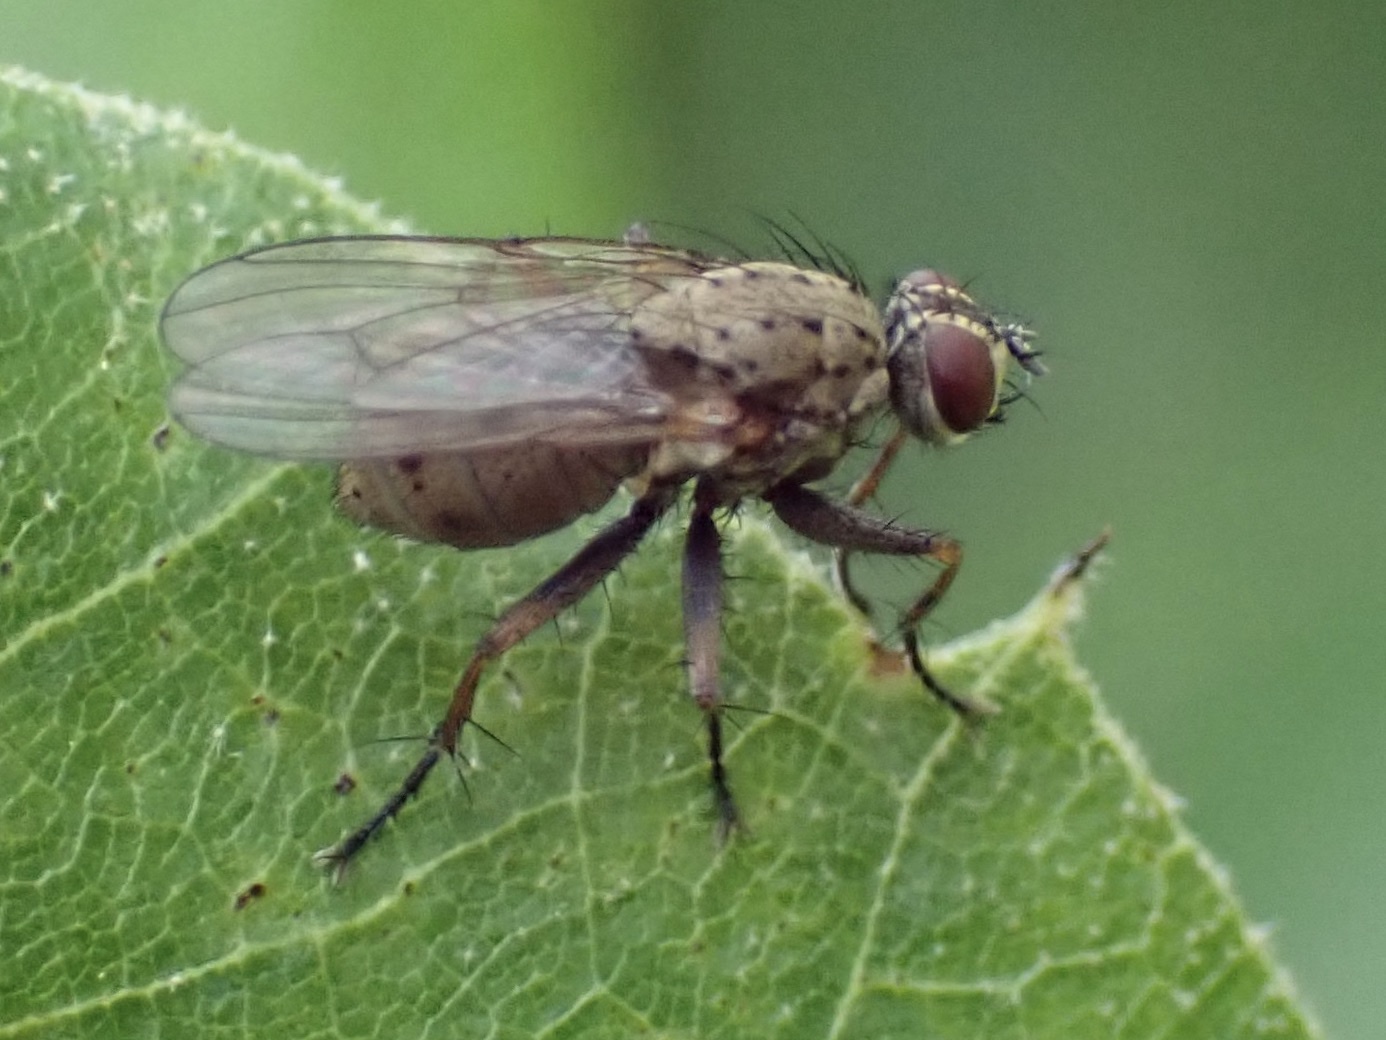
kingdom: Animalia
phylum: Arthropoda
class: Insecta
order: Diptera
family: Muscidae
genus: Coenosia
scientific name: Coenosia tigrina
